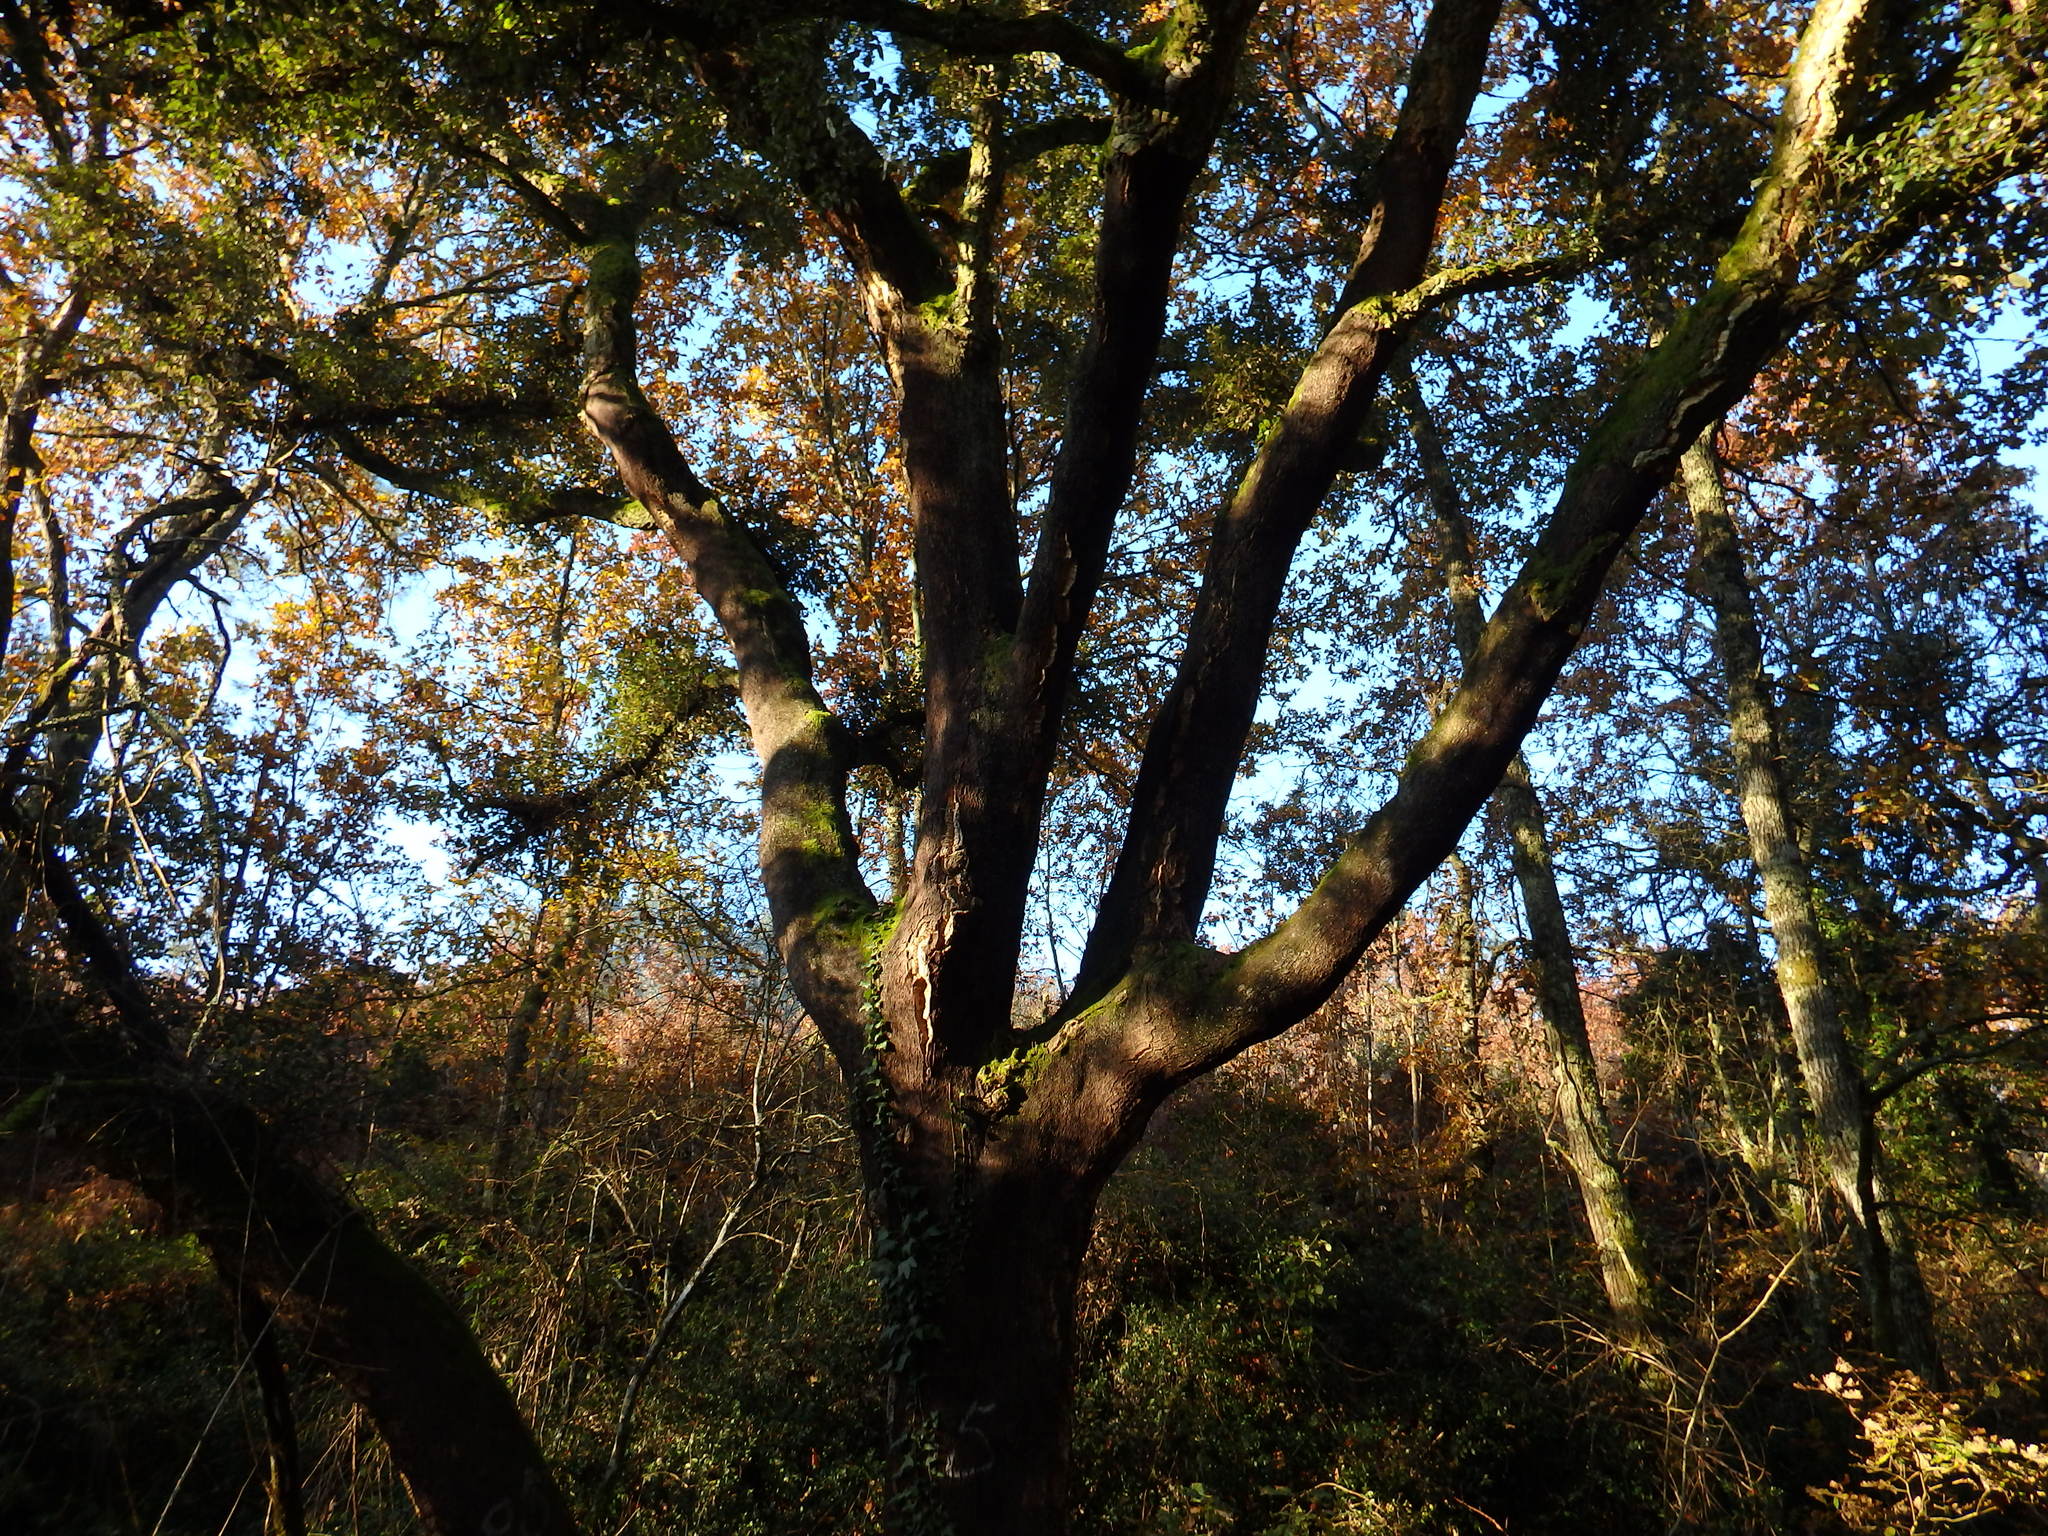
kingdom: Plantae
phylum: Tracheophyta
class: Magnoliopsida
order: Fagales
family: Fagaceae
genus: Quercus
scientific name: Quercus suber
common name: Cork oak
